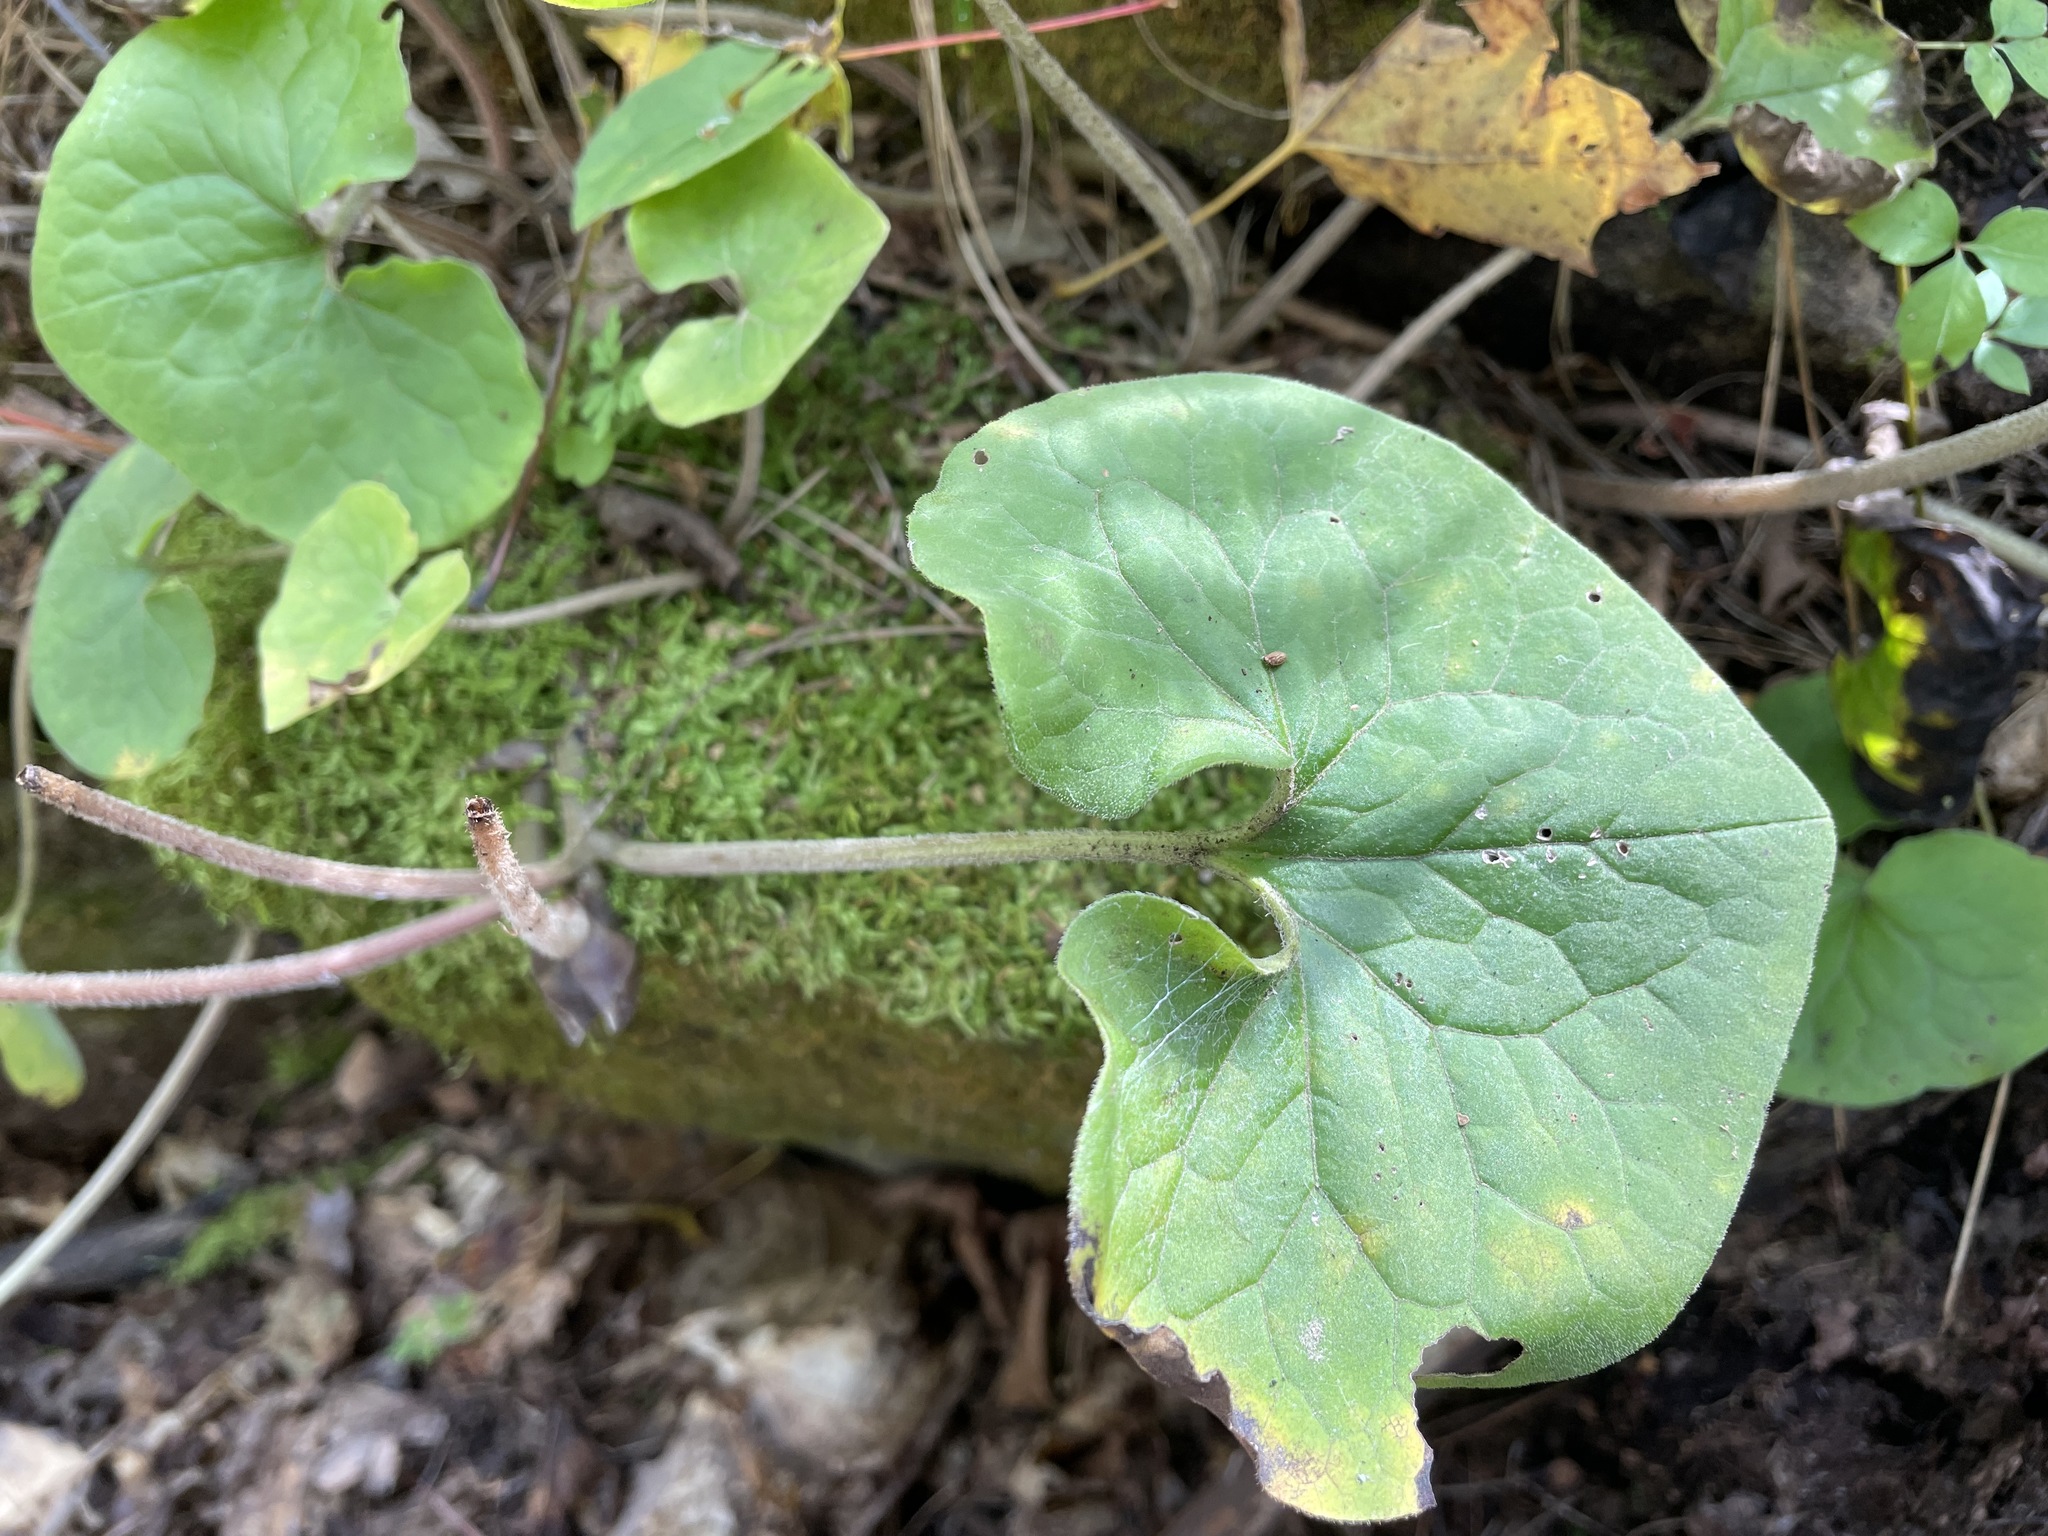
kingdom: Plantae
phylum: Tracheophyta
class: Magnoliopsida
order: Piperales
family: Aristolochiaceae
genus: Asarum
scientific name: Asarum canadense
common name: Wild ginger
